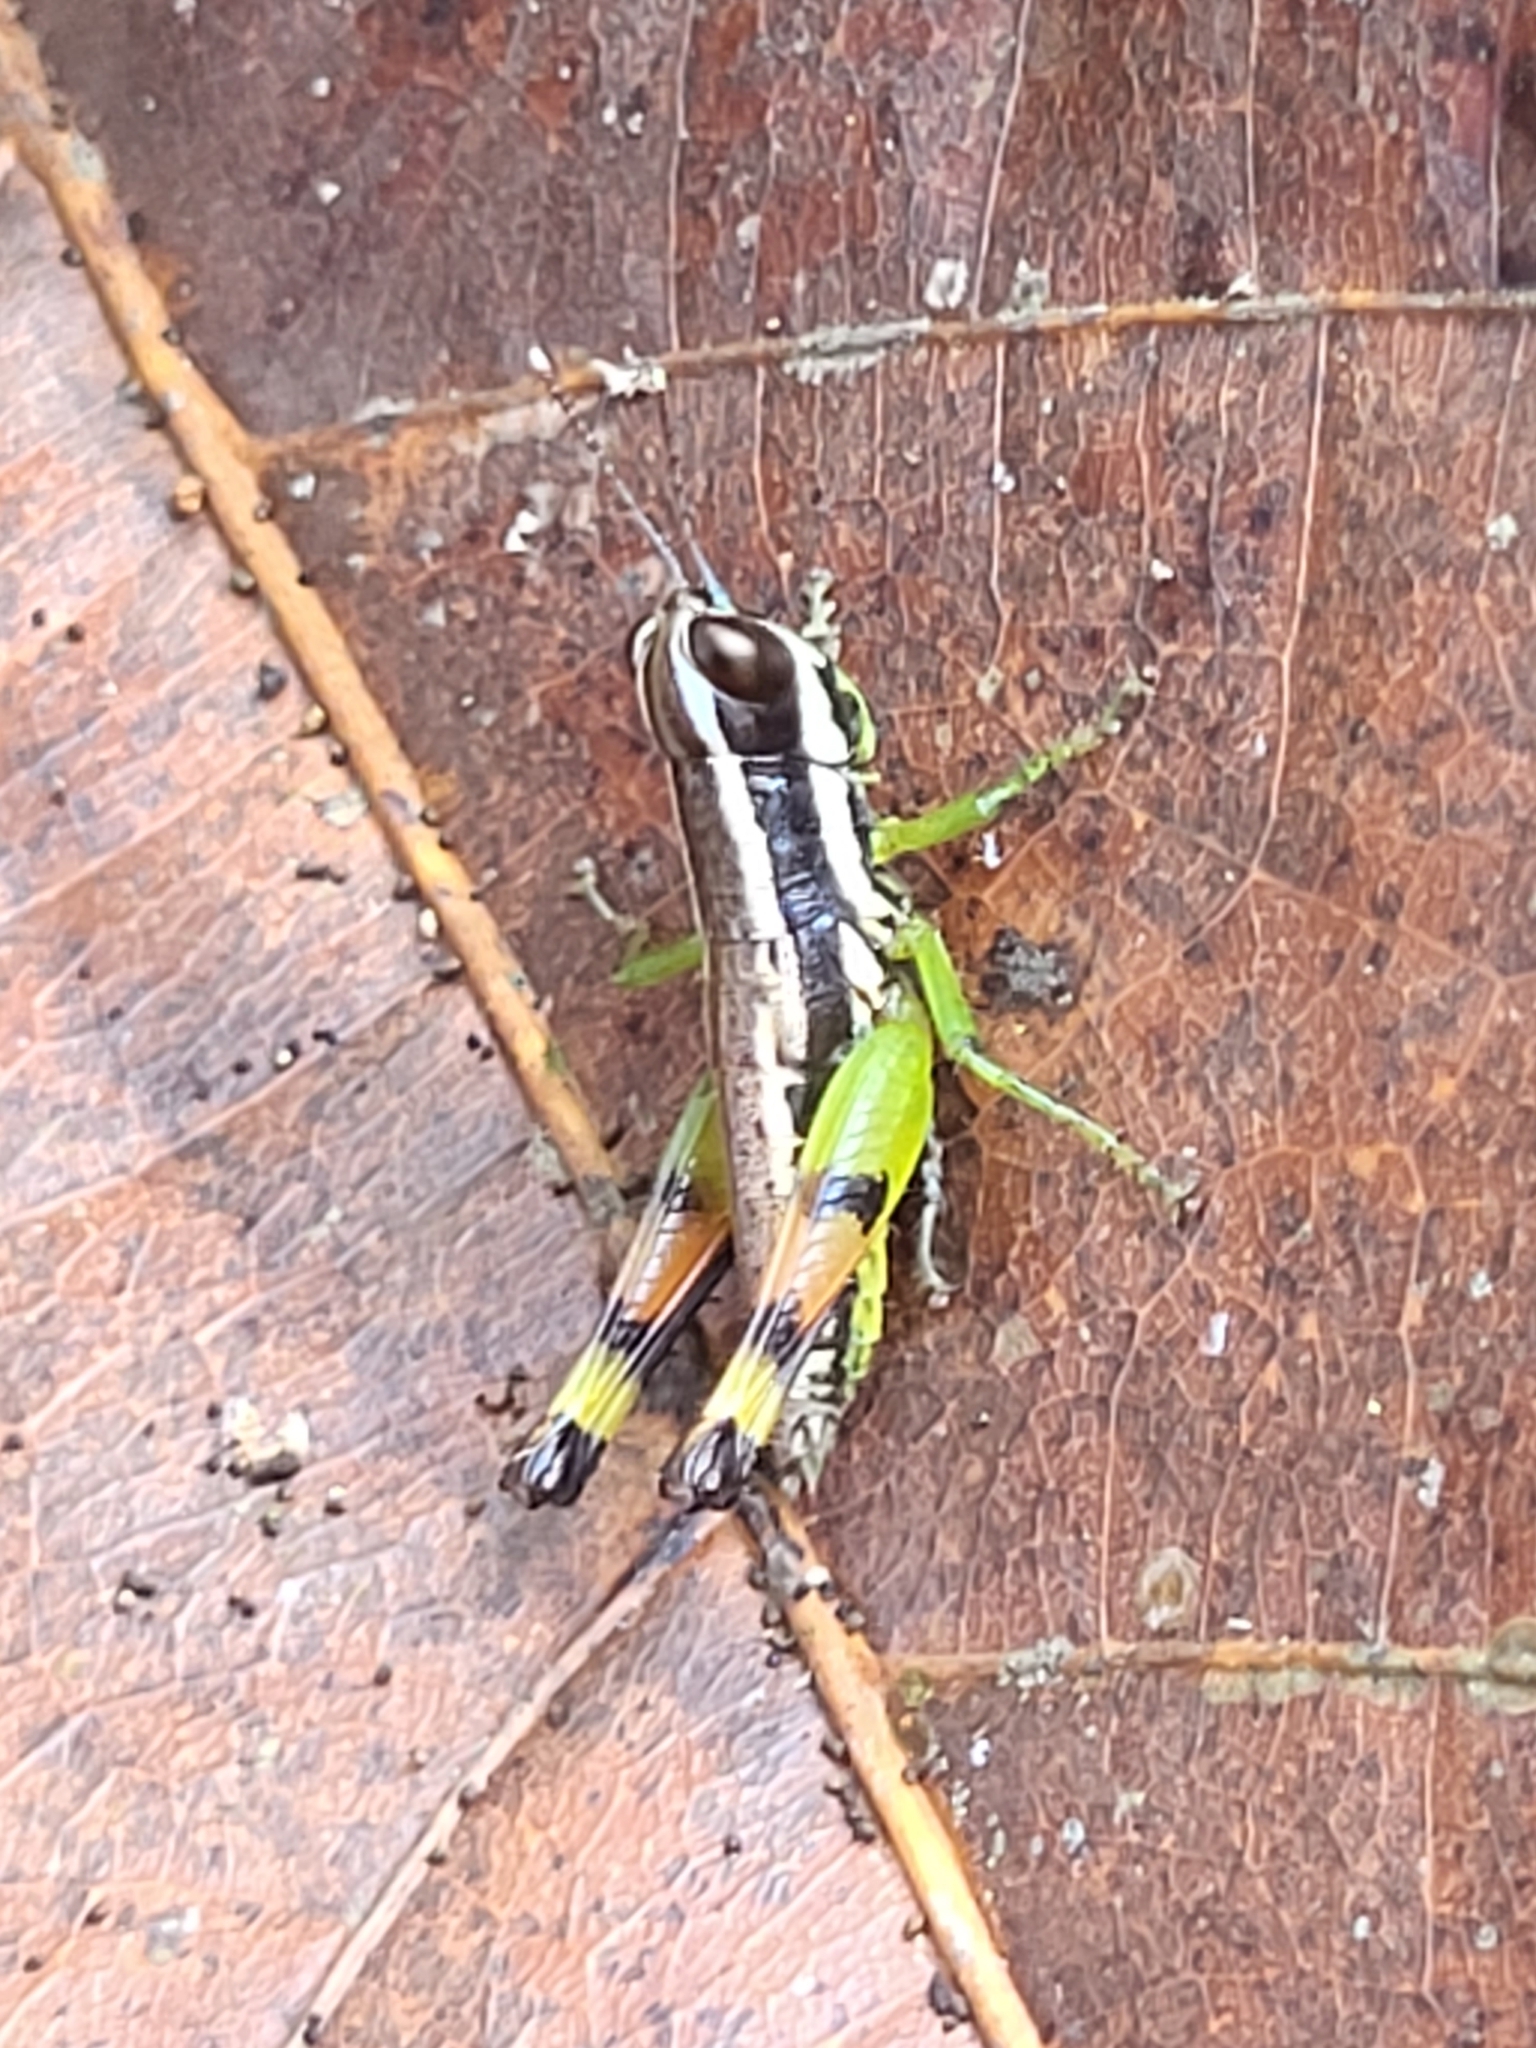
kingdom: Animalia
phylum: Arthropoda
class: Insecta
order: Orthoptera
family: Acrididae
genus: Chitaura
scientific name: Chitaura indica
